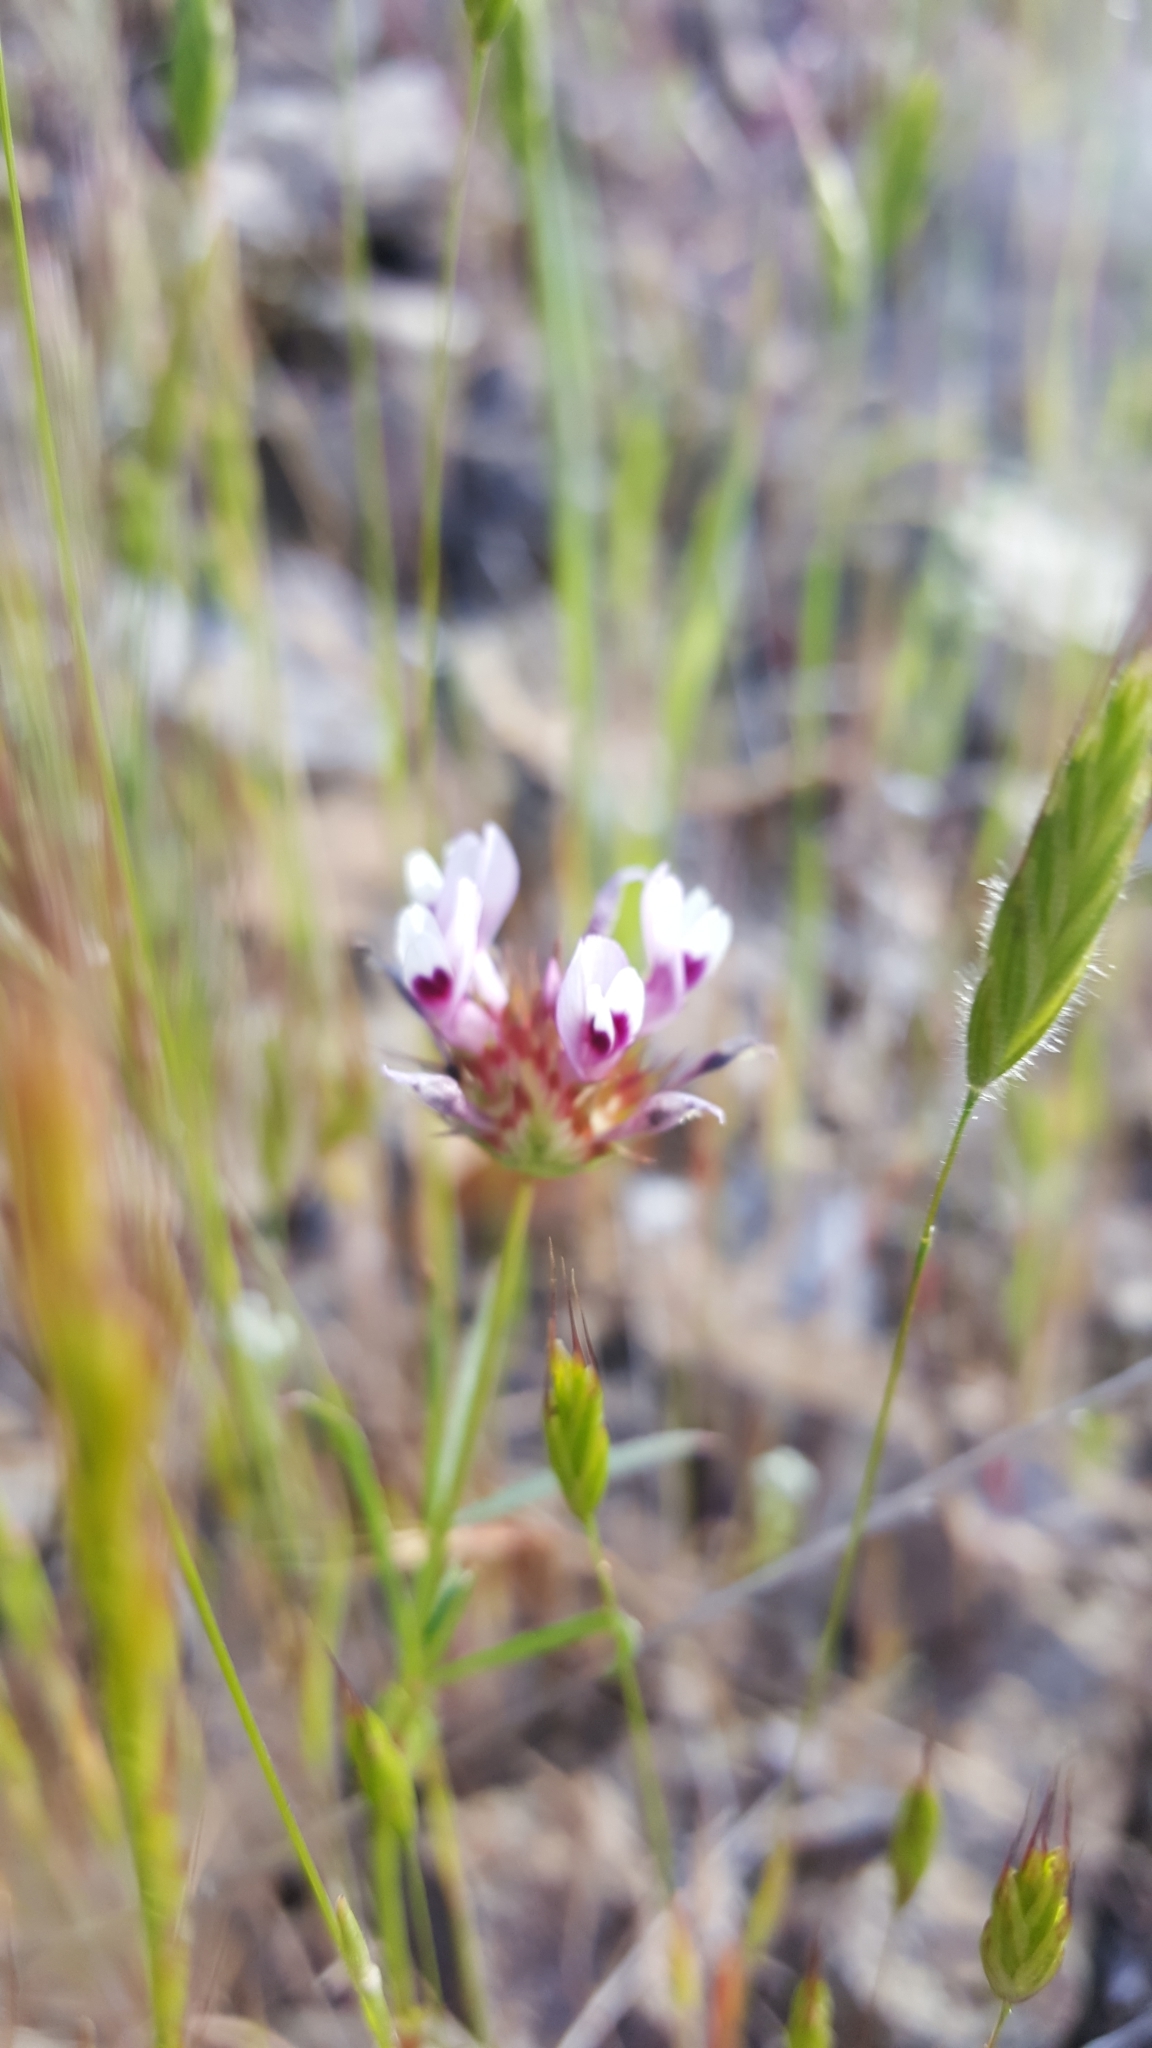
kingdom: Plantae
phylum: Tracheophyta
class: Magnoliopsida
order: Fabales
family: Fabaceae
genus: Trifolium
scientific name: Trifolium willdenovii
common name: Tomcat clover
